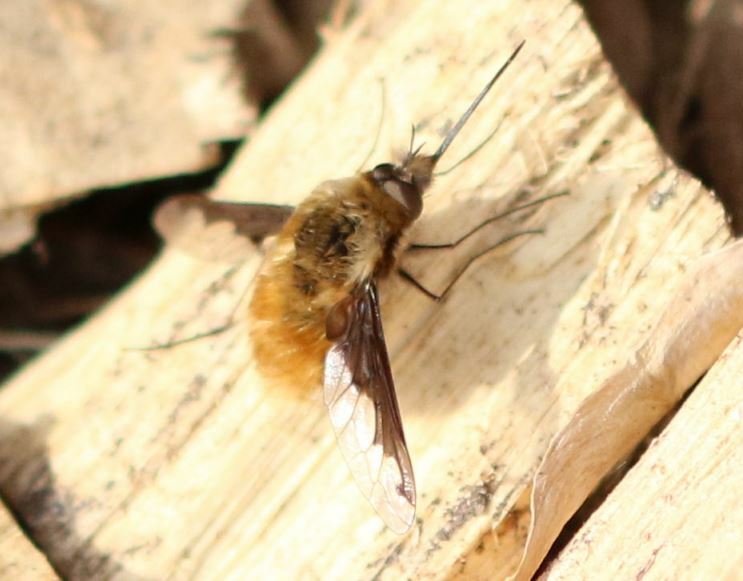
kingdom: Animalia
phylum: Arthropoda
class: Insecta
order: Diptera
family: Bombyliidae
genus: Bombylius
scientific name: Bombylius major
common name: Bee fly
